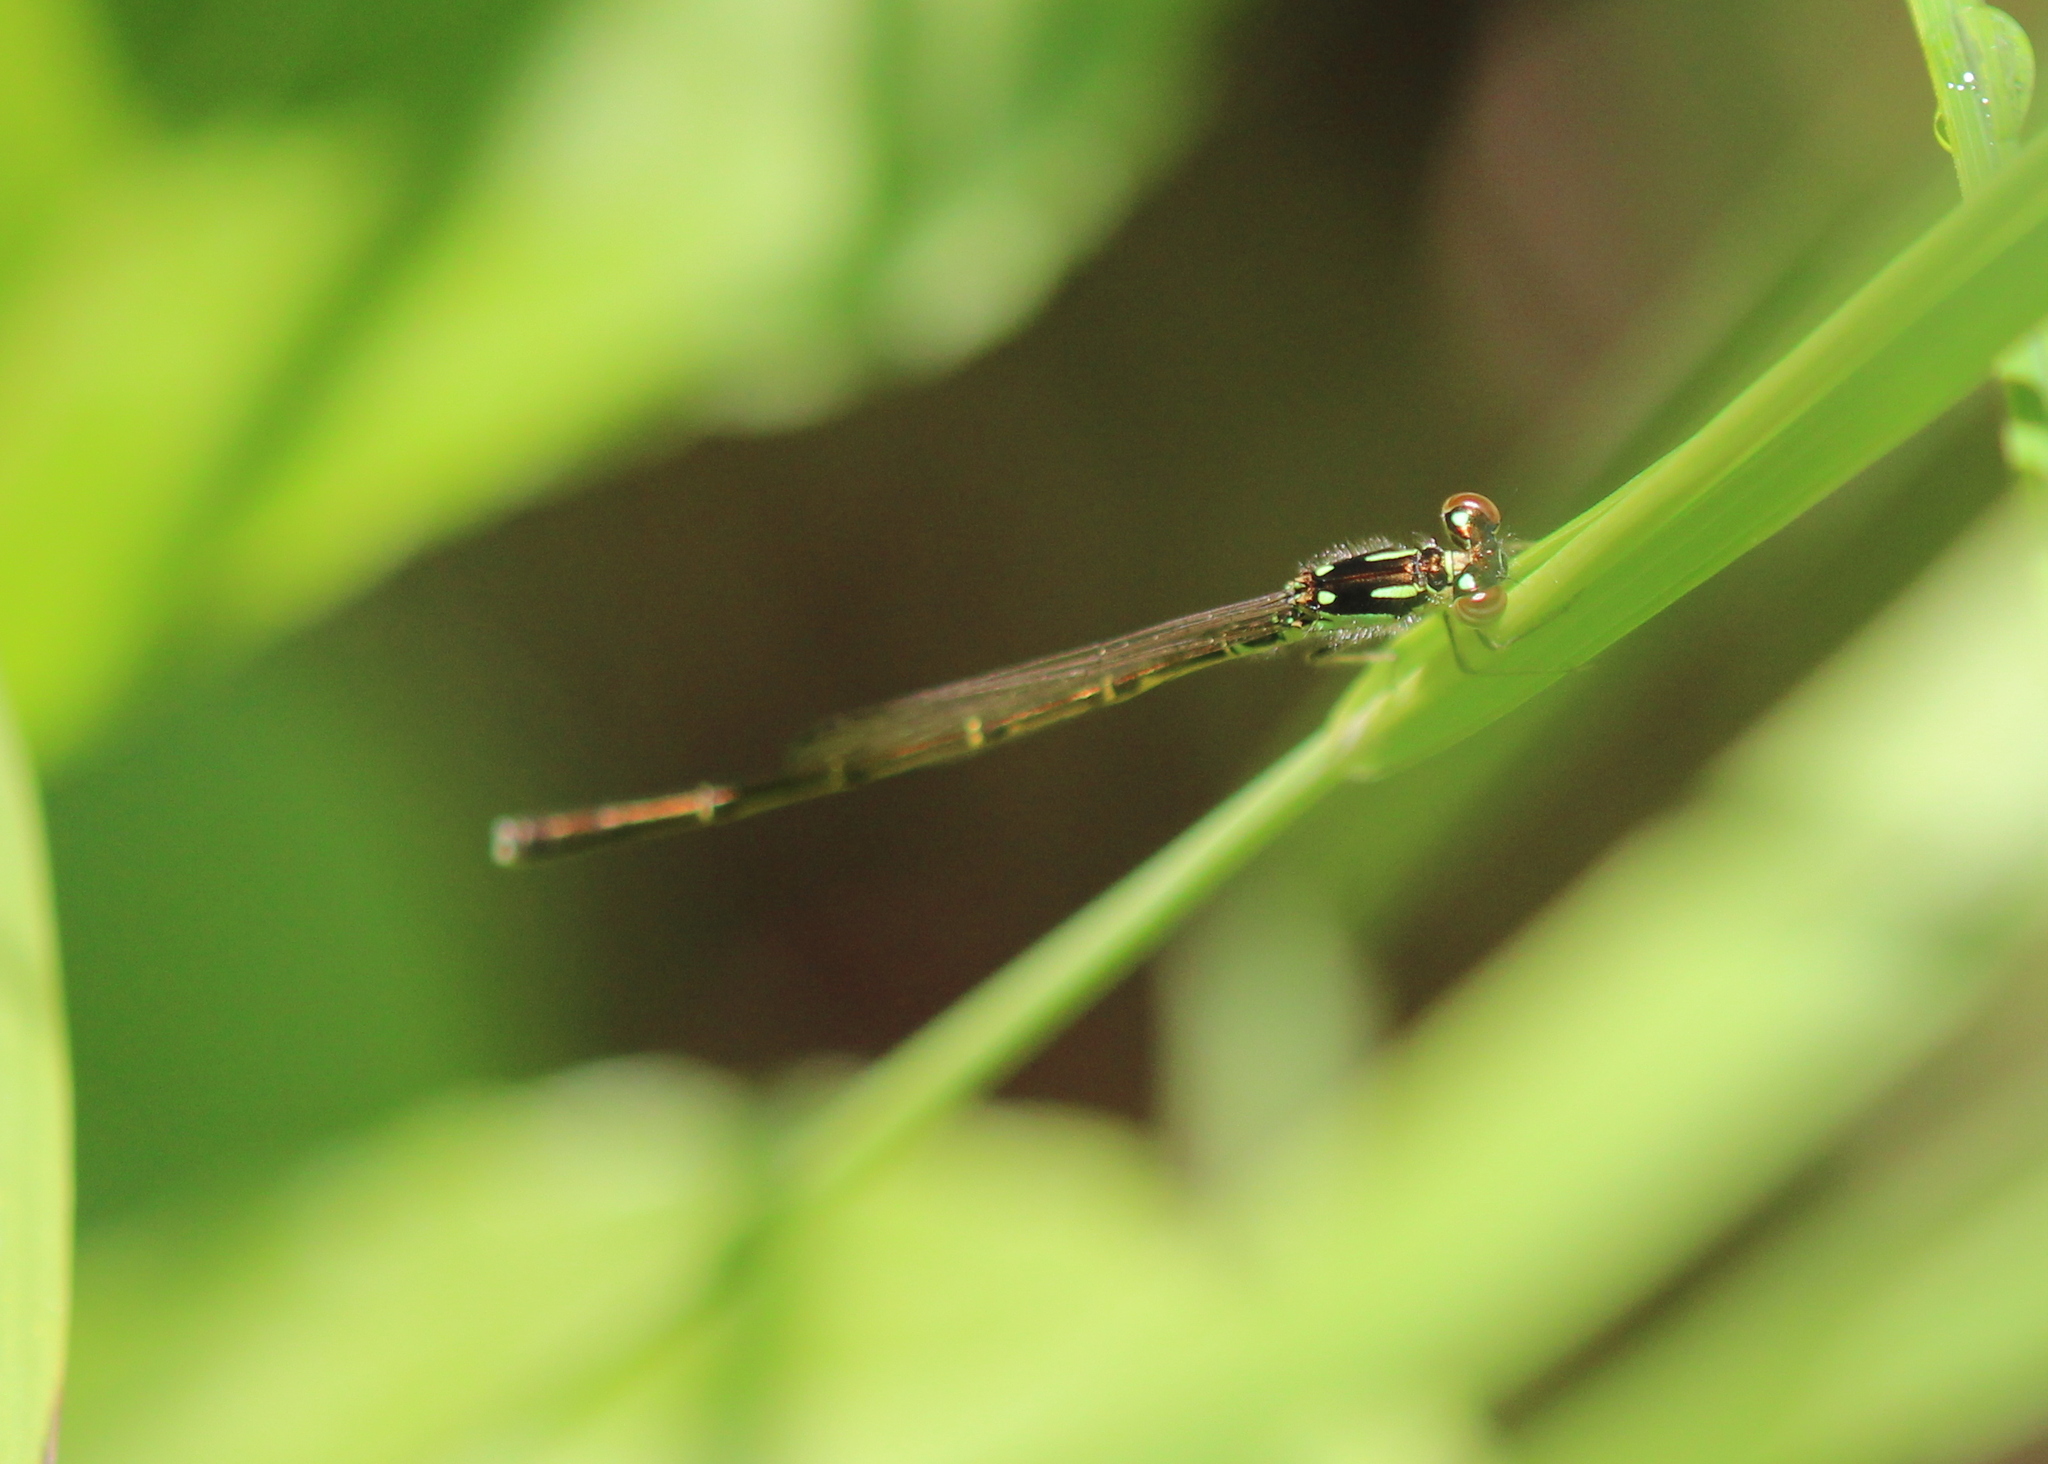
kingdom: Animalia
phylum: Arthropoda
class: Insecta
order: Odonata
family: Coenagrionidae
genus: Ischnura
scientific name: Ischnura posita
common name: Fragile forktail
